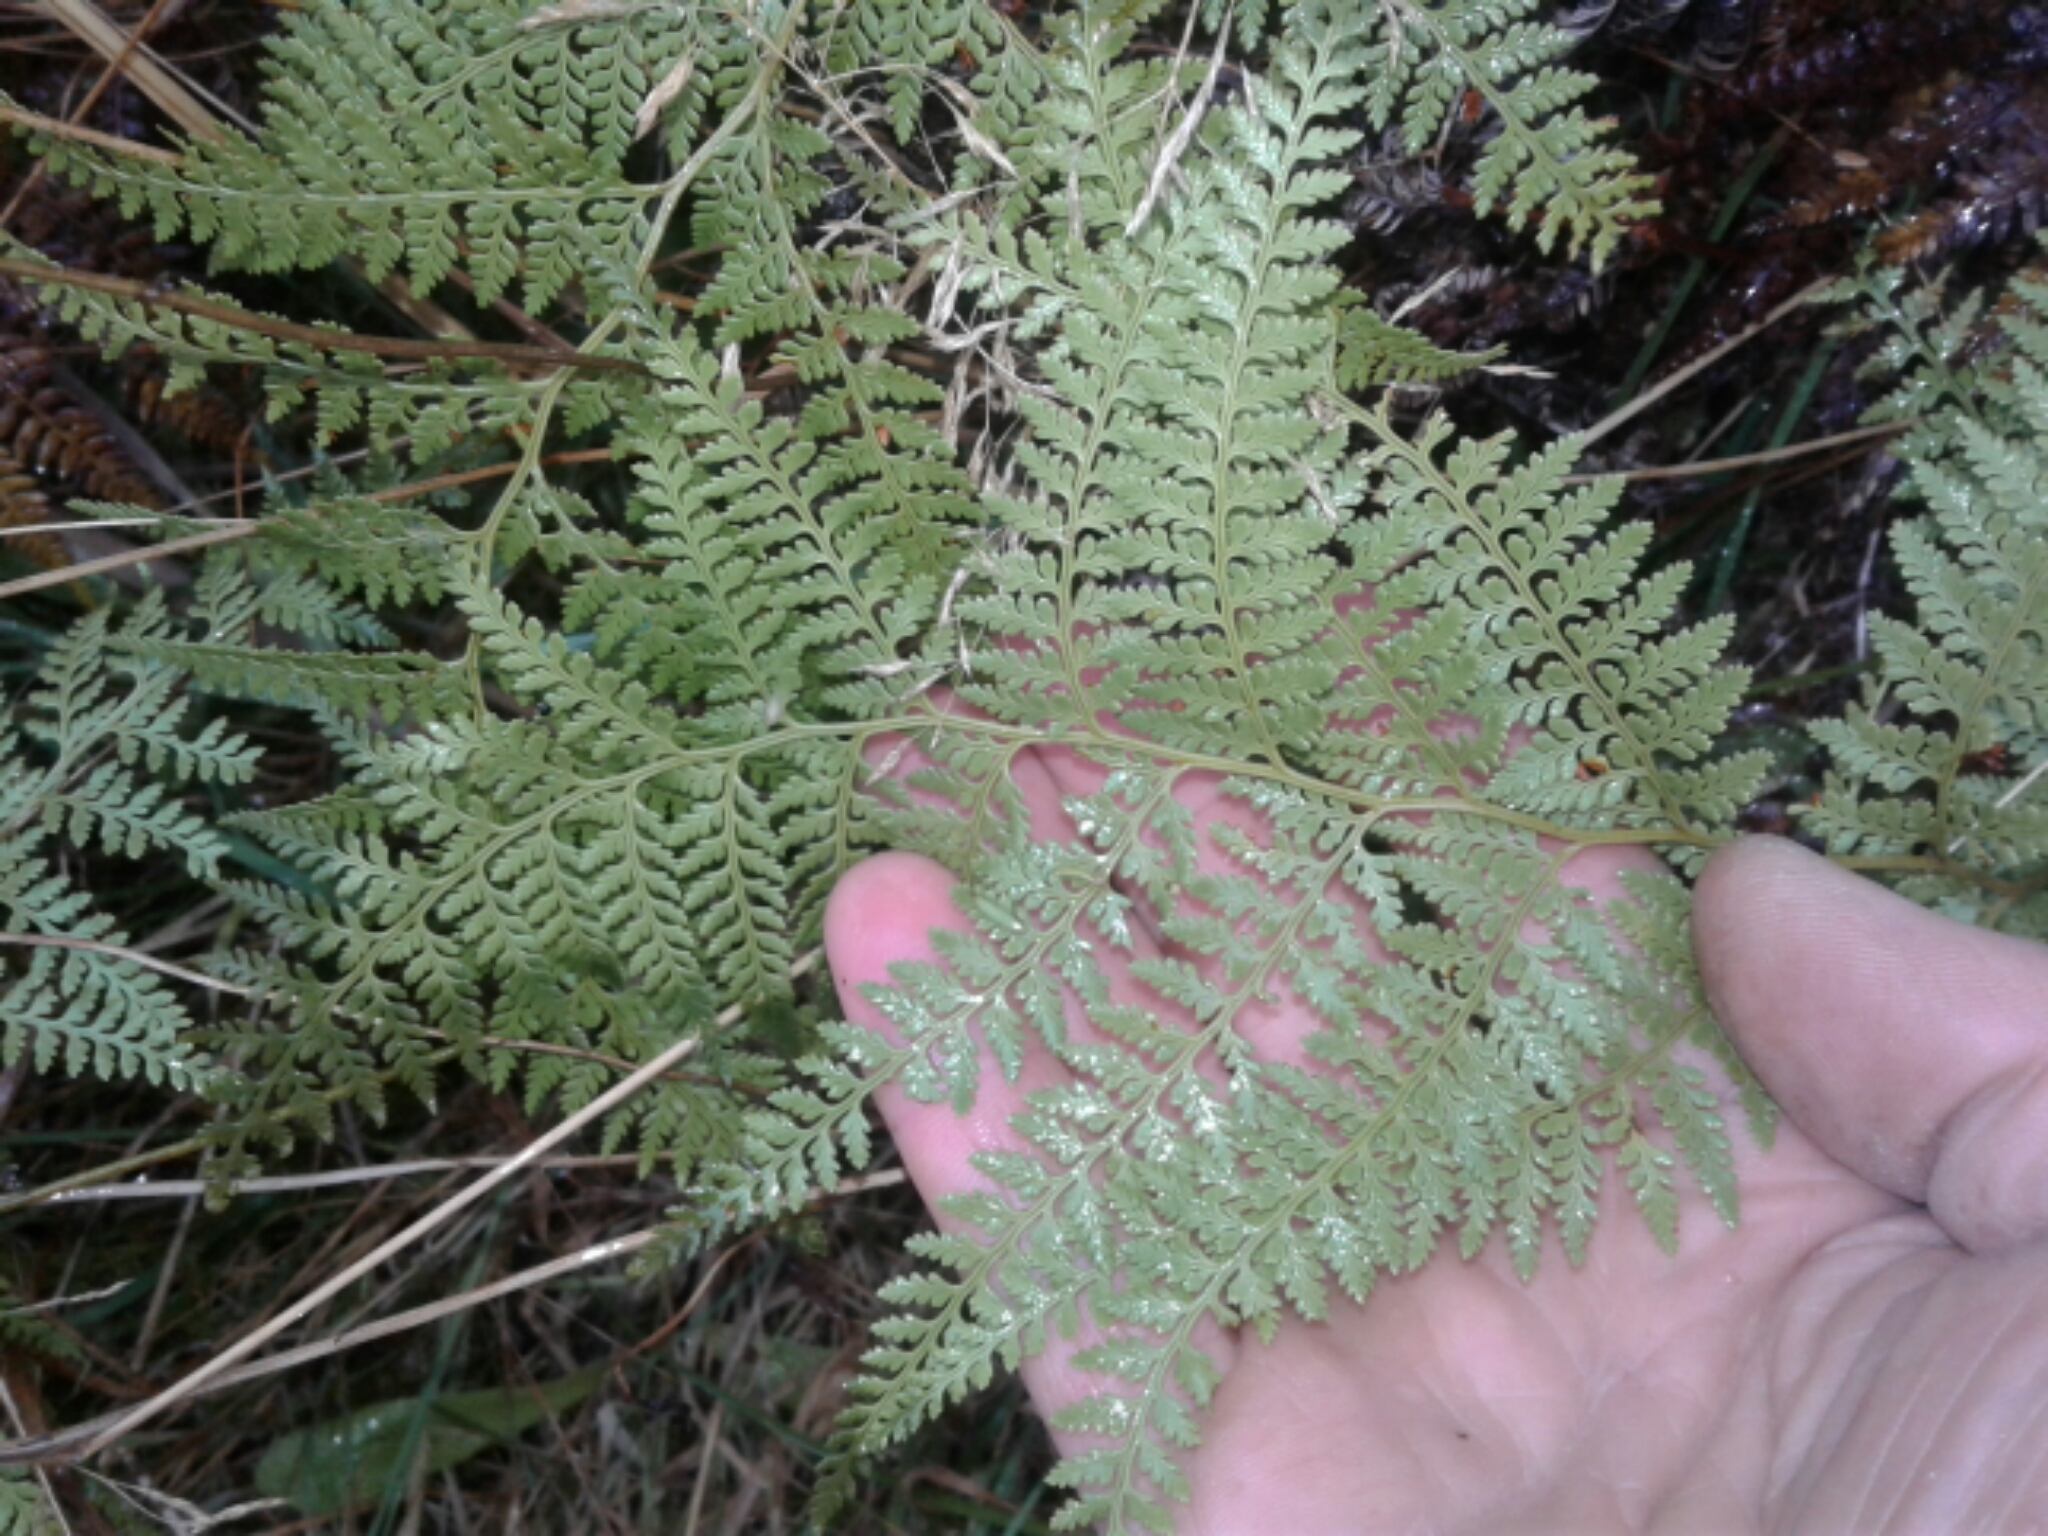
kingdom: Plantae
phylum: Tracheophyta
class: Polypodiopsida
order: Polypodiales
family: Dennstaedtiaceae
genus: Paesia
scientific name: Paesia scaberula
